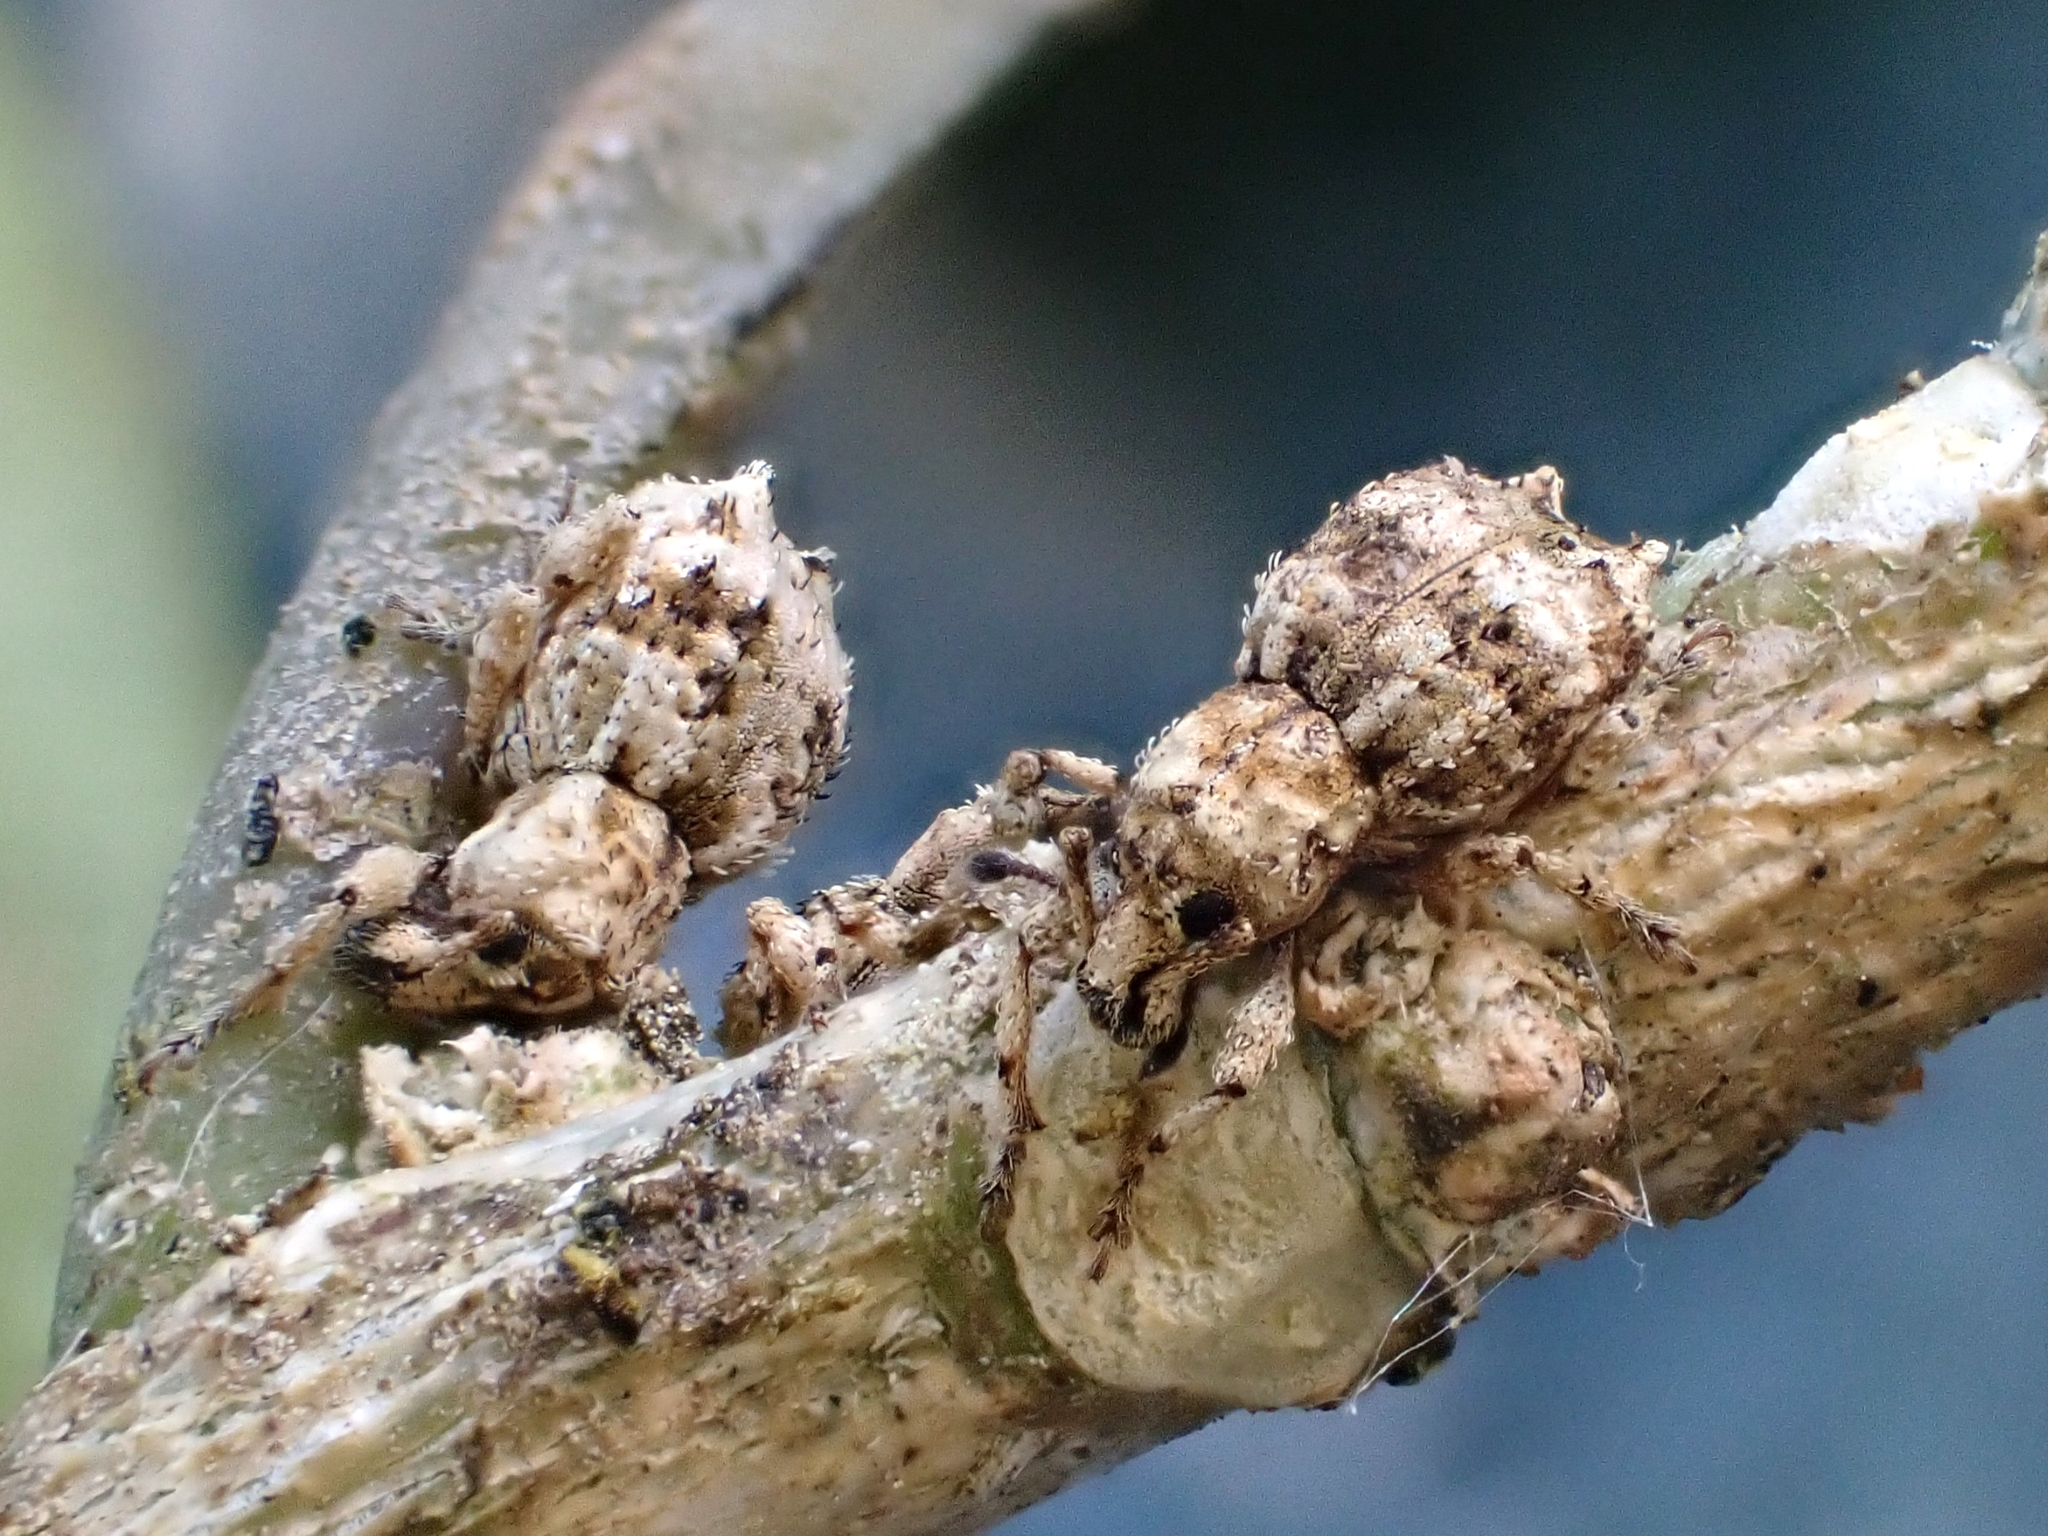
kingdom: Animalia
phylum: Arthropoda
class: Insecta
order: Coleoptera
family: Curculionidae
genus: Brachyolus
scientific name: Brachyolus punctatus
